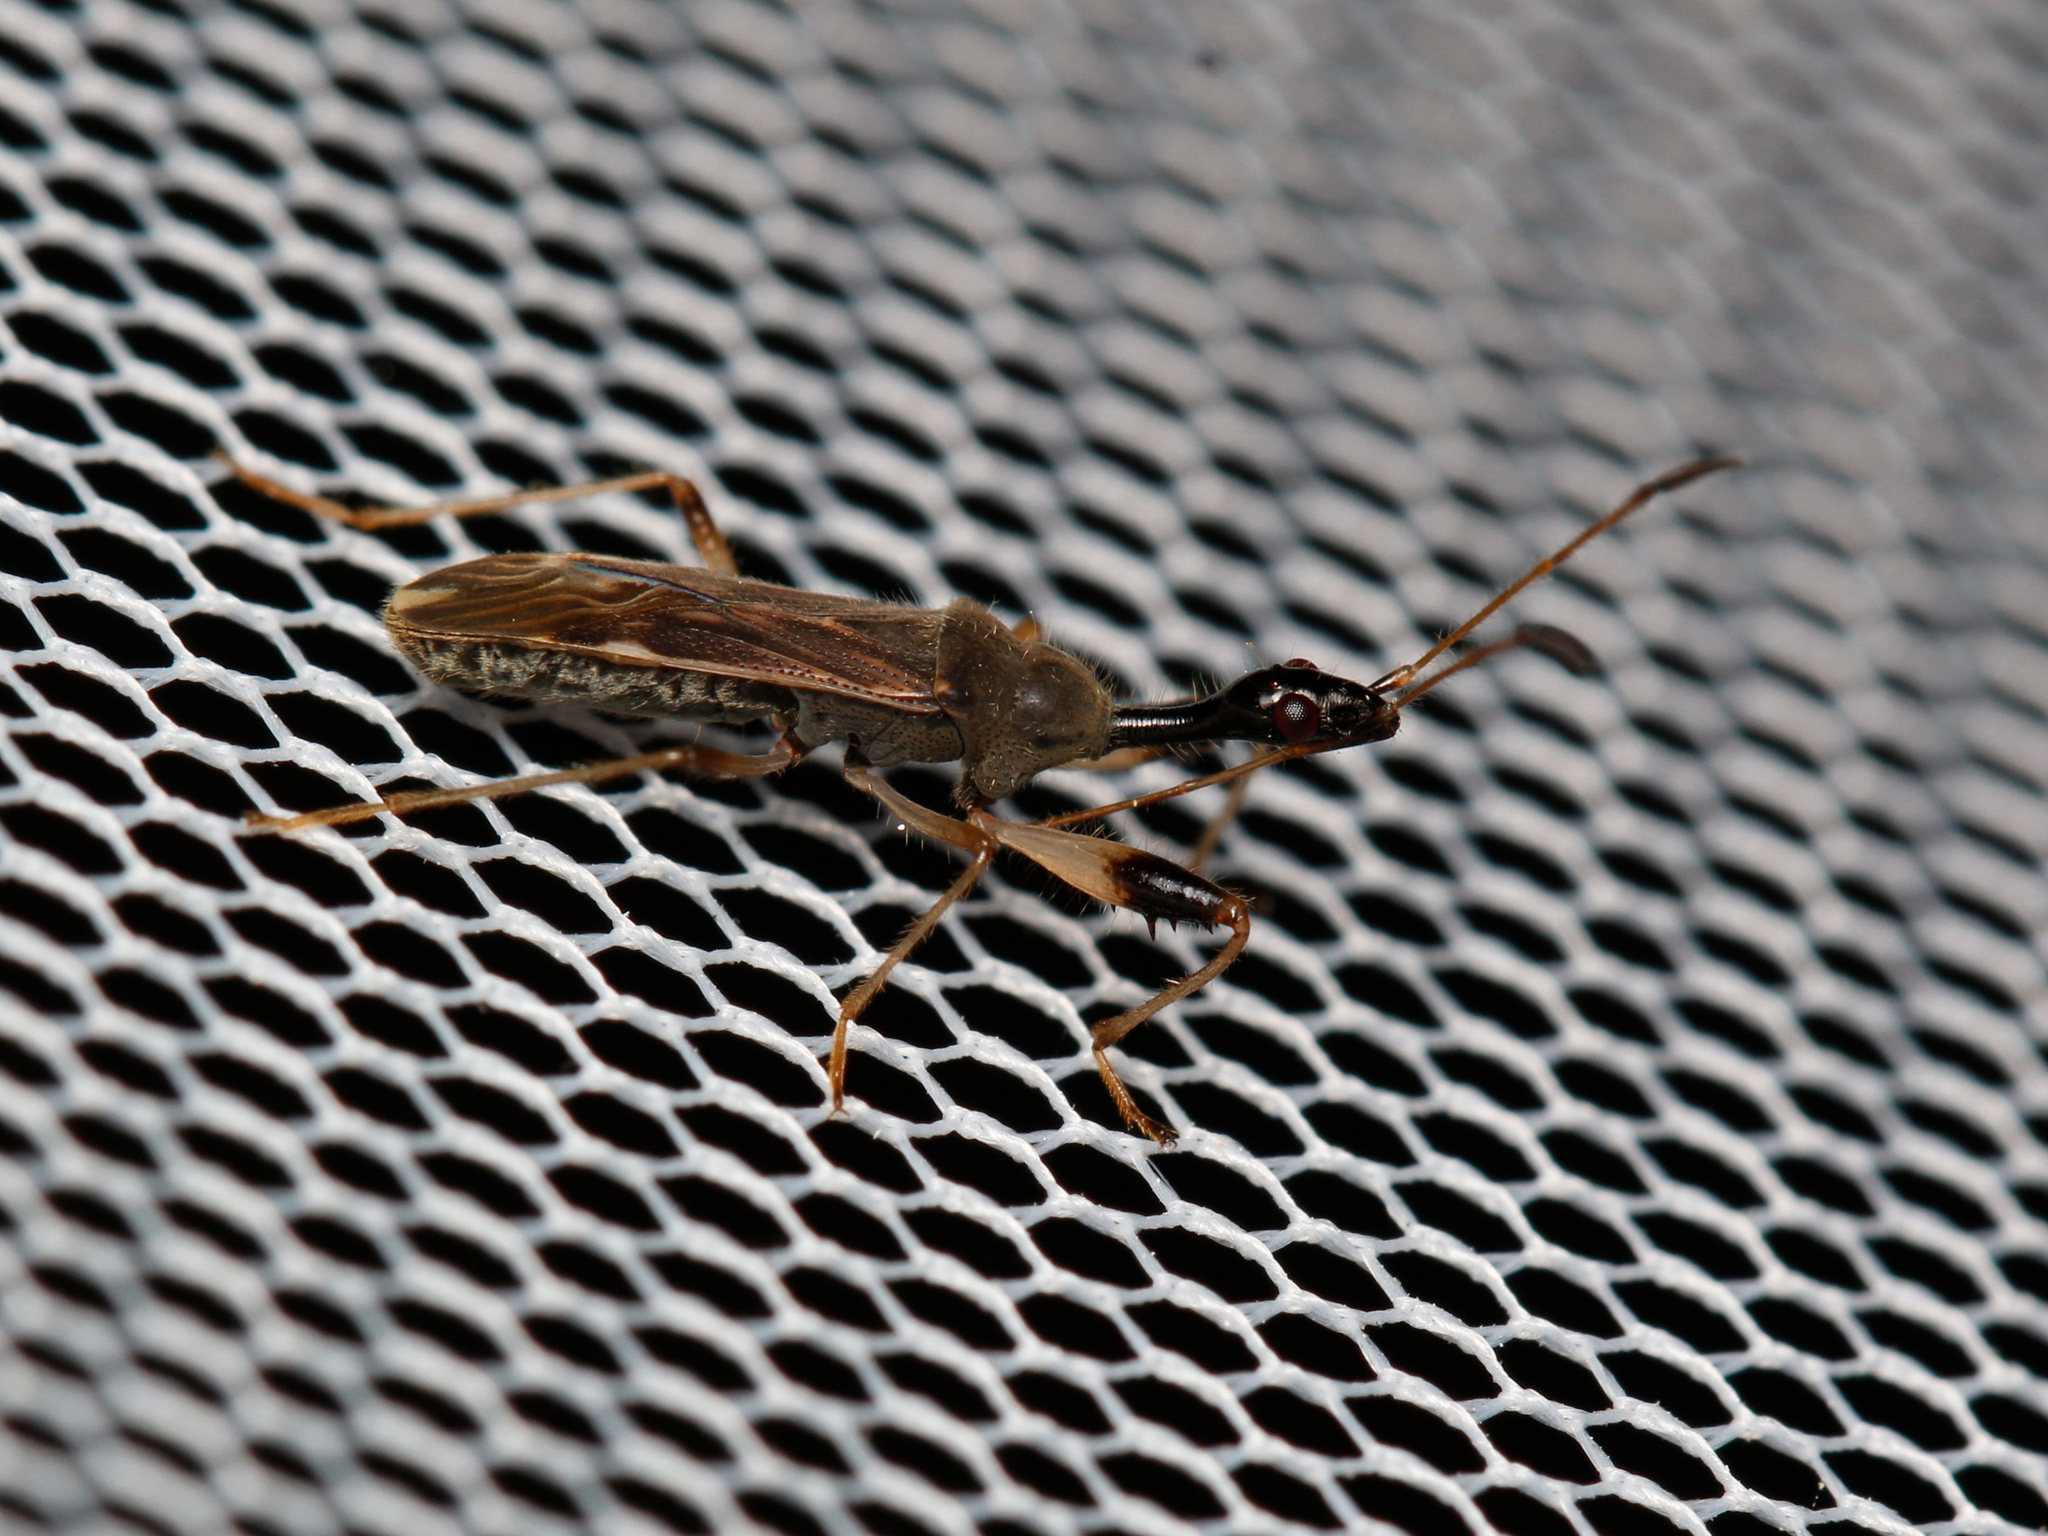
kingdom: Animalia
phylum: Arthropoda
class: Insecta
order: Hemiptera
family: Rhyparochromidae
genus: Myodocha
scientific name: Myodocha serripes
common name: Long-necked seed bug
